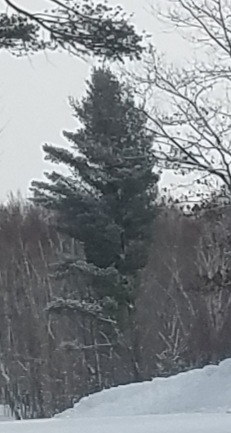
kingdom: Plantae
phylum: Tracheophyta
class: Pinopsida
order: Pinales
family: Pinaceae
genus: Pinus
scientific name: Pinus strobus
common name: Weymouth pine
